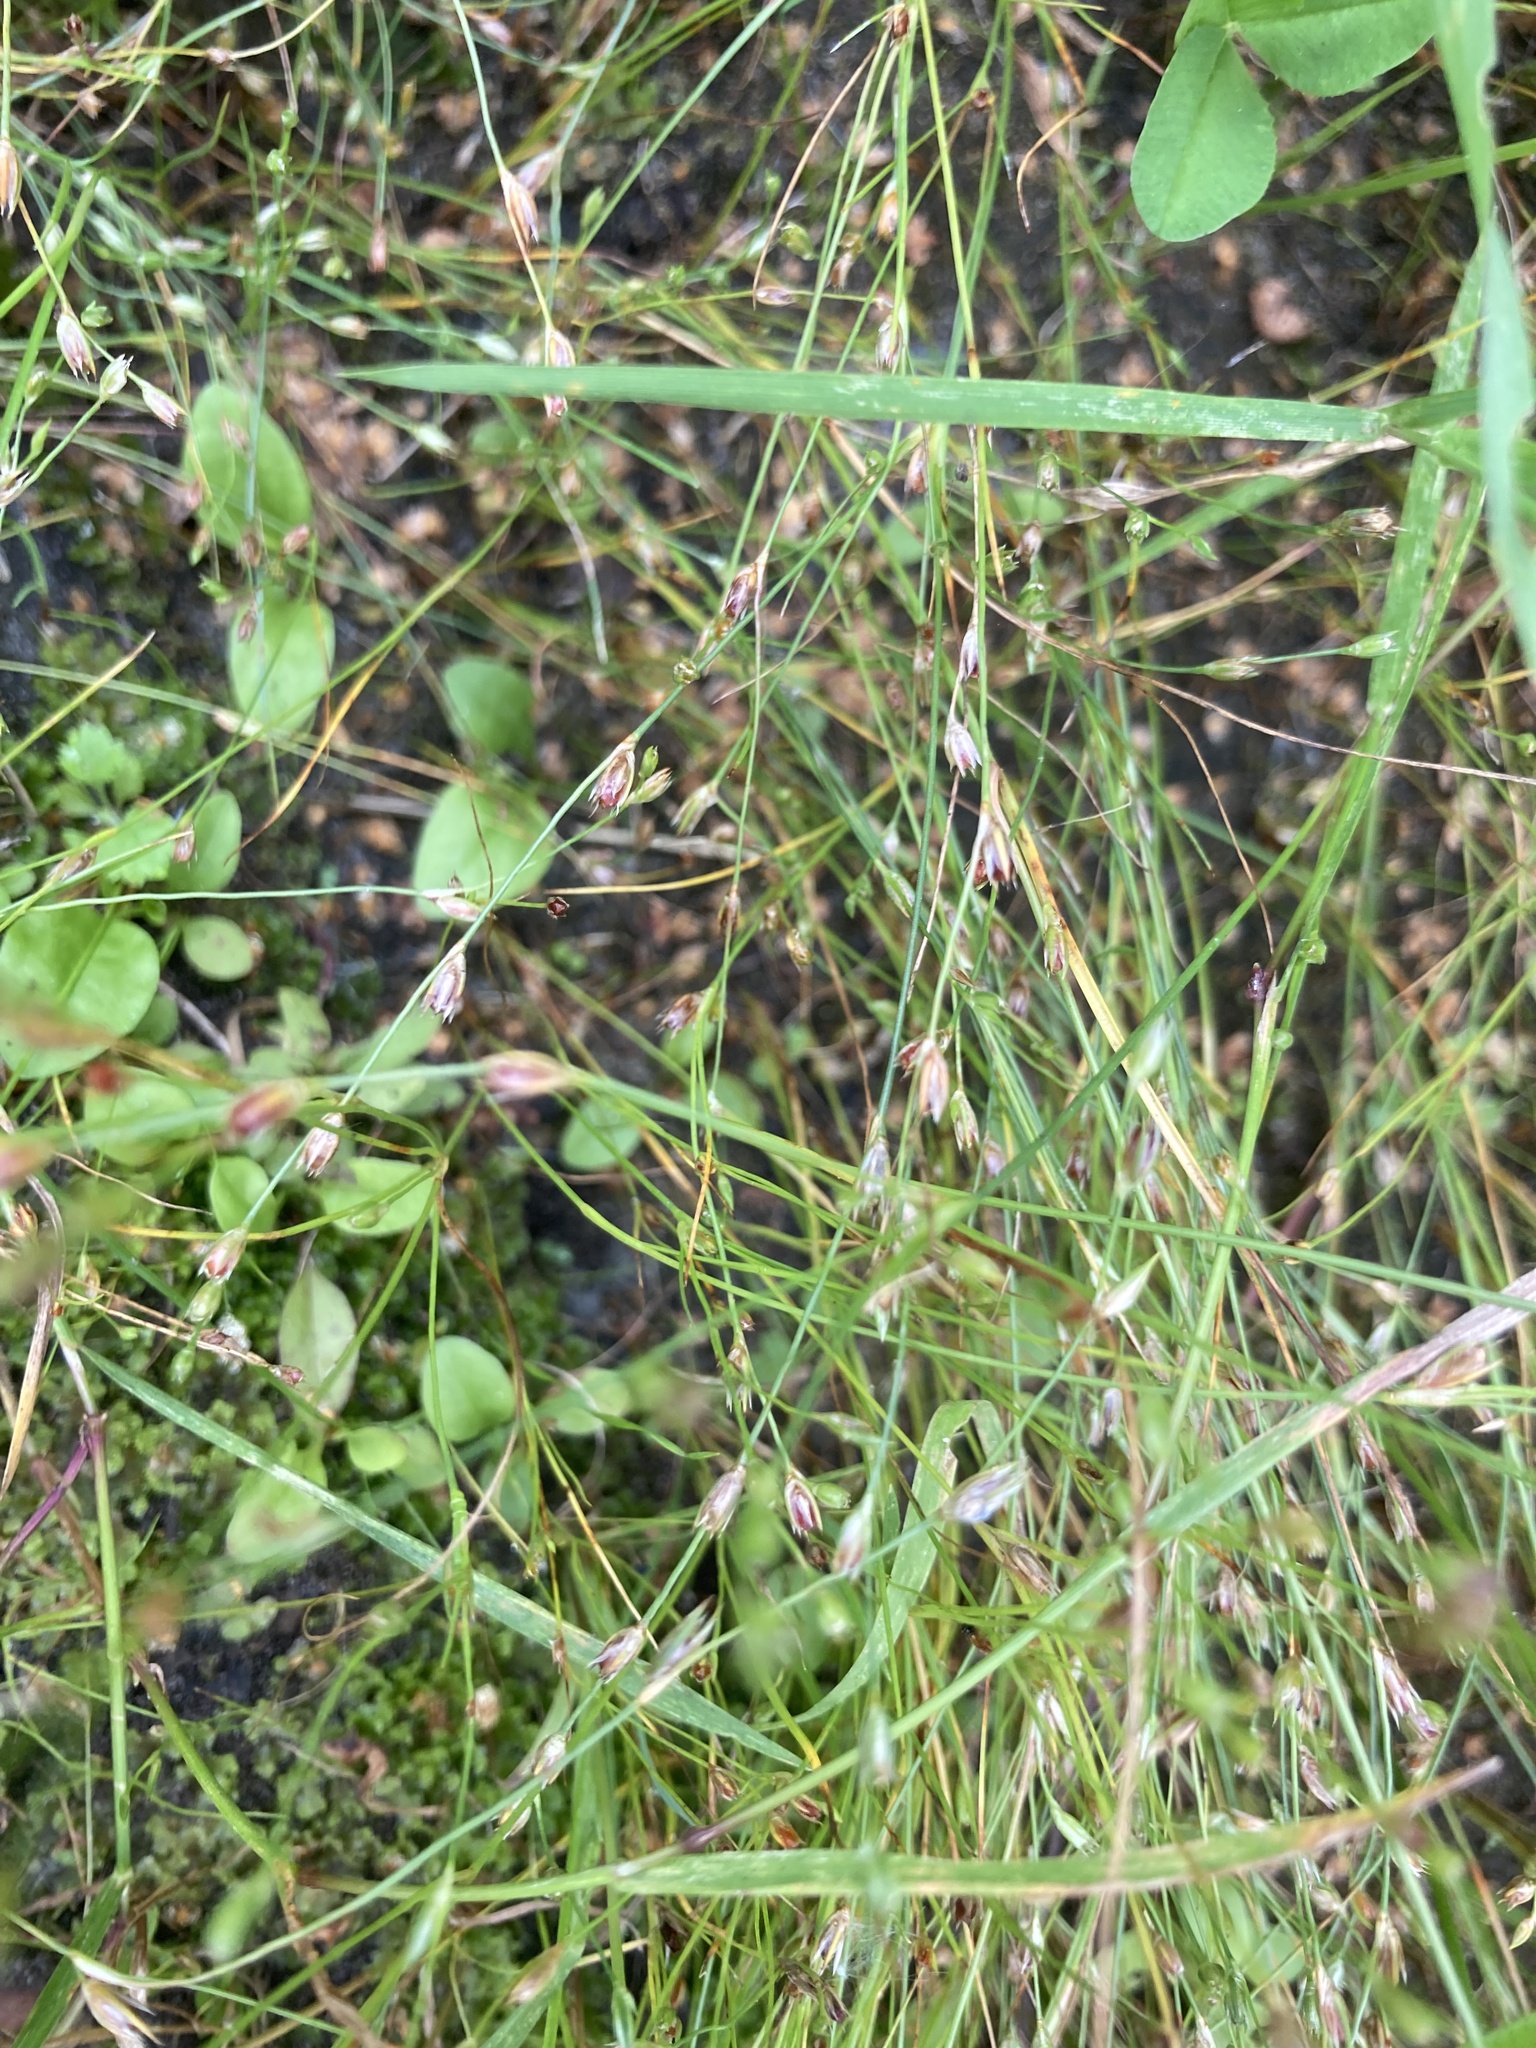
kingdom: Plantae
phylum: Tracheophyta
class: Liliopsida
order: Poales
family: Juncaceae
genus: Juncus
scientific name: Juncus bufonius
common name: Toad rush
